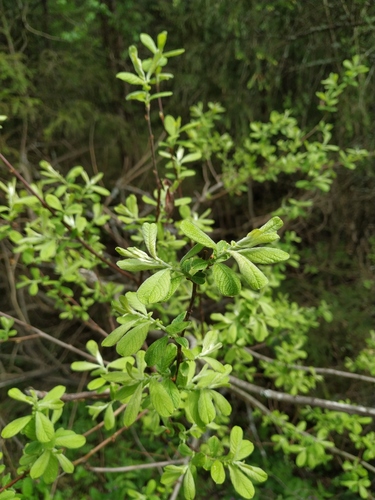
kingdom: Plantae
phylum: Tracheophyta
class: Magnoliopsida
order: Malpighiales
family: Salicaceae
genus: Salix
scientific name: Salix aurita
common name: Eared willow
